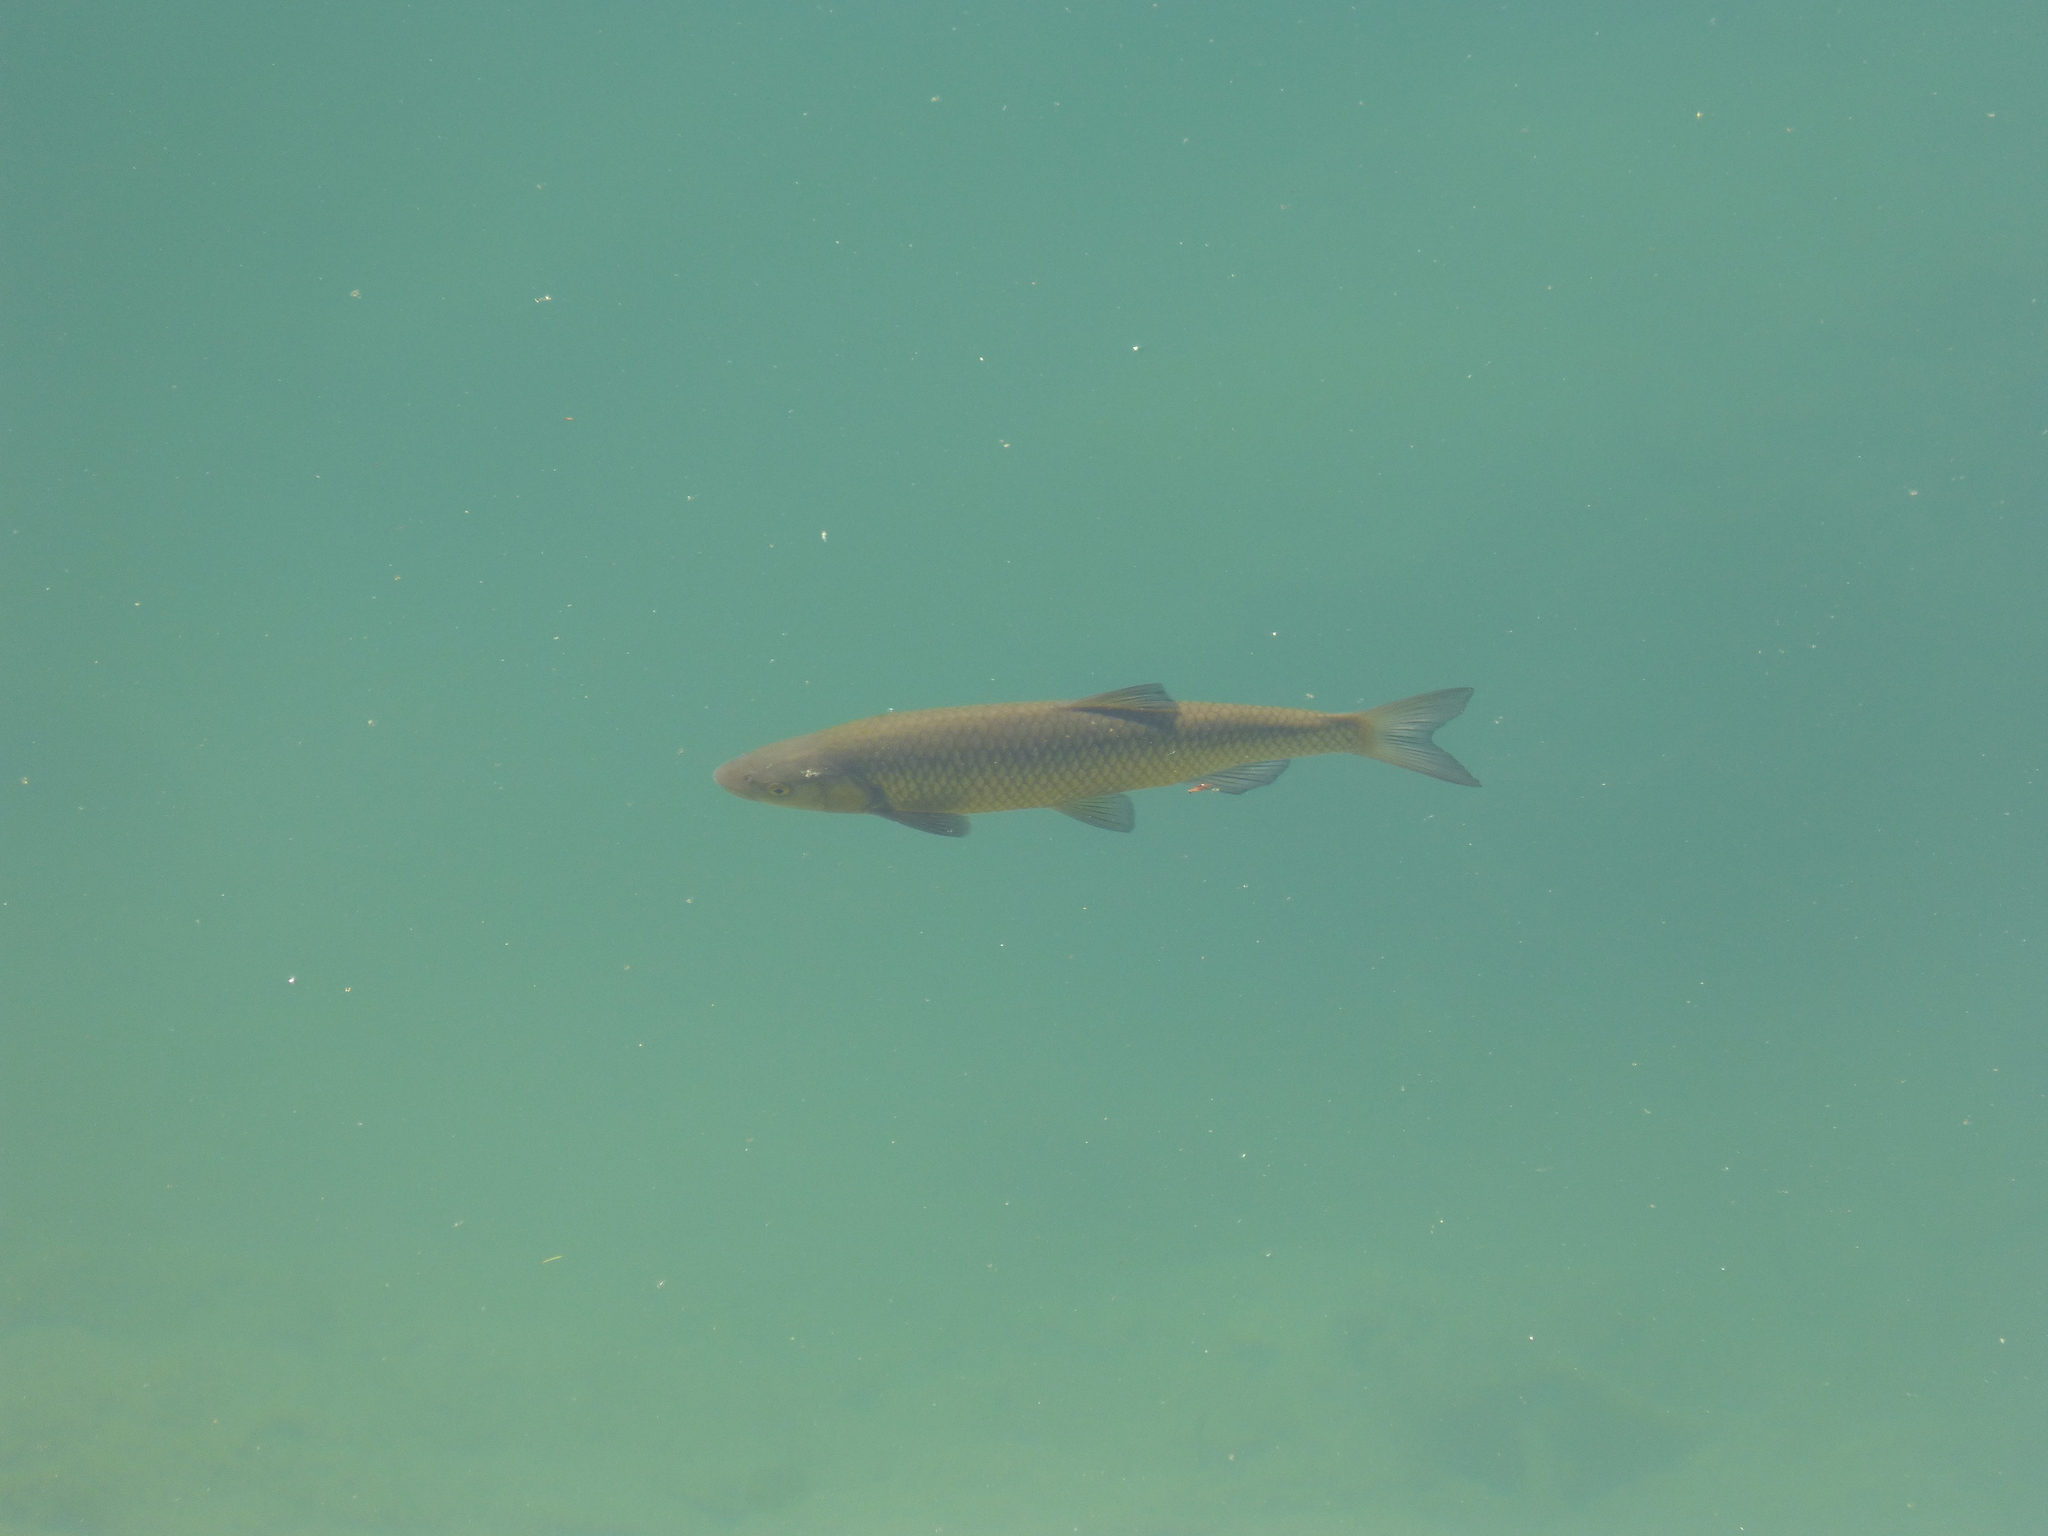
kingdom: Animalia
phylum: Chordata
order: Cypriniformes
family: Cyprinidae
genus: Squalius
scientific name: Squalius squalus
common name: Italian chub
